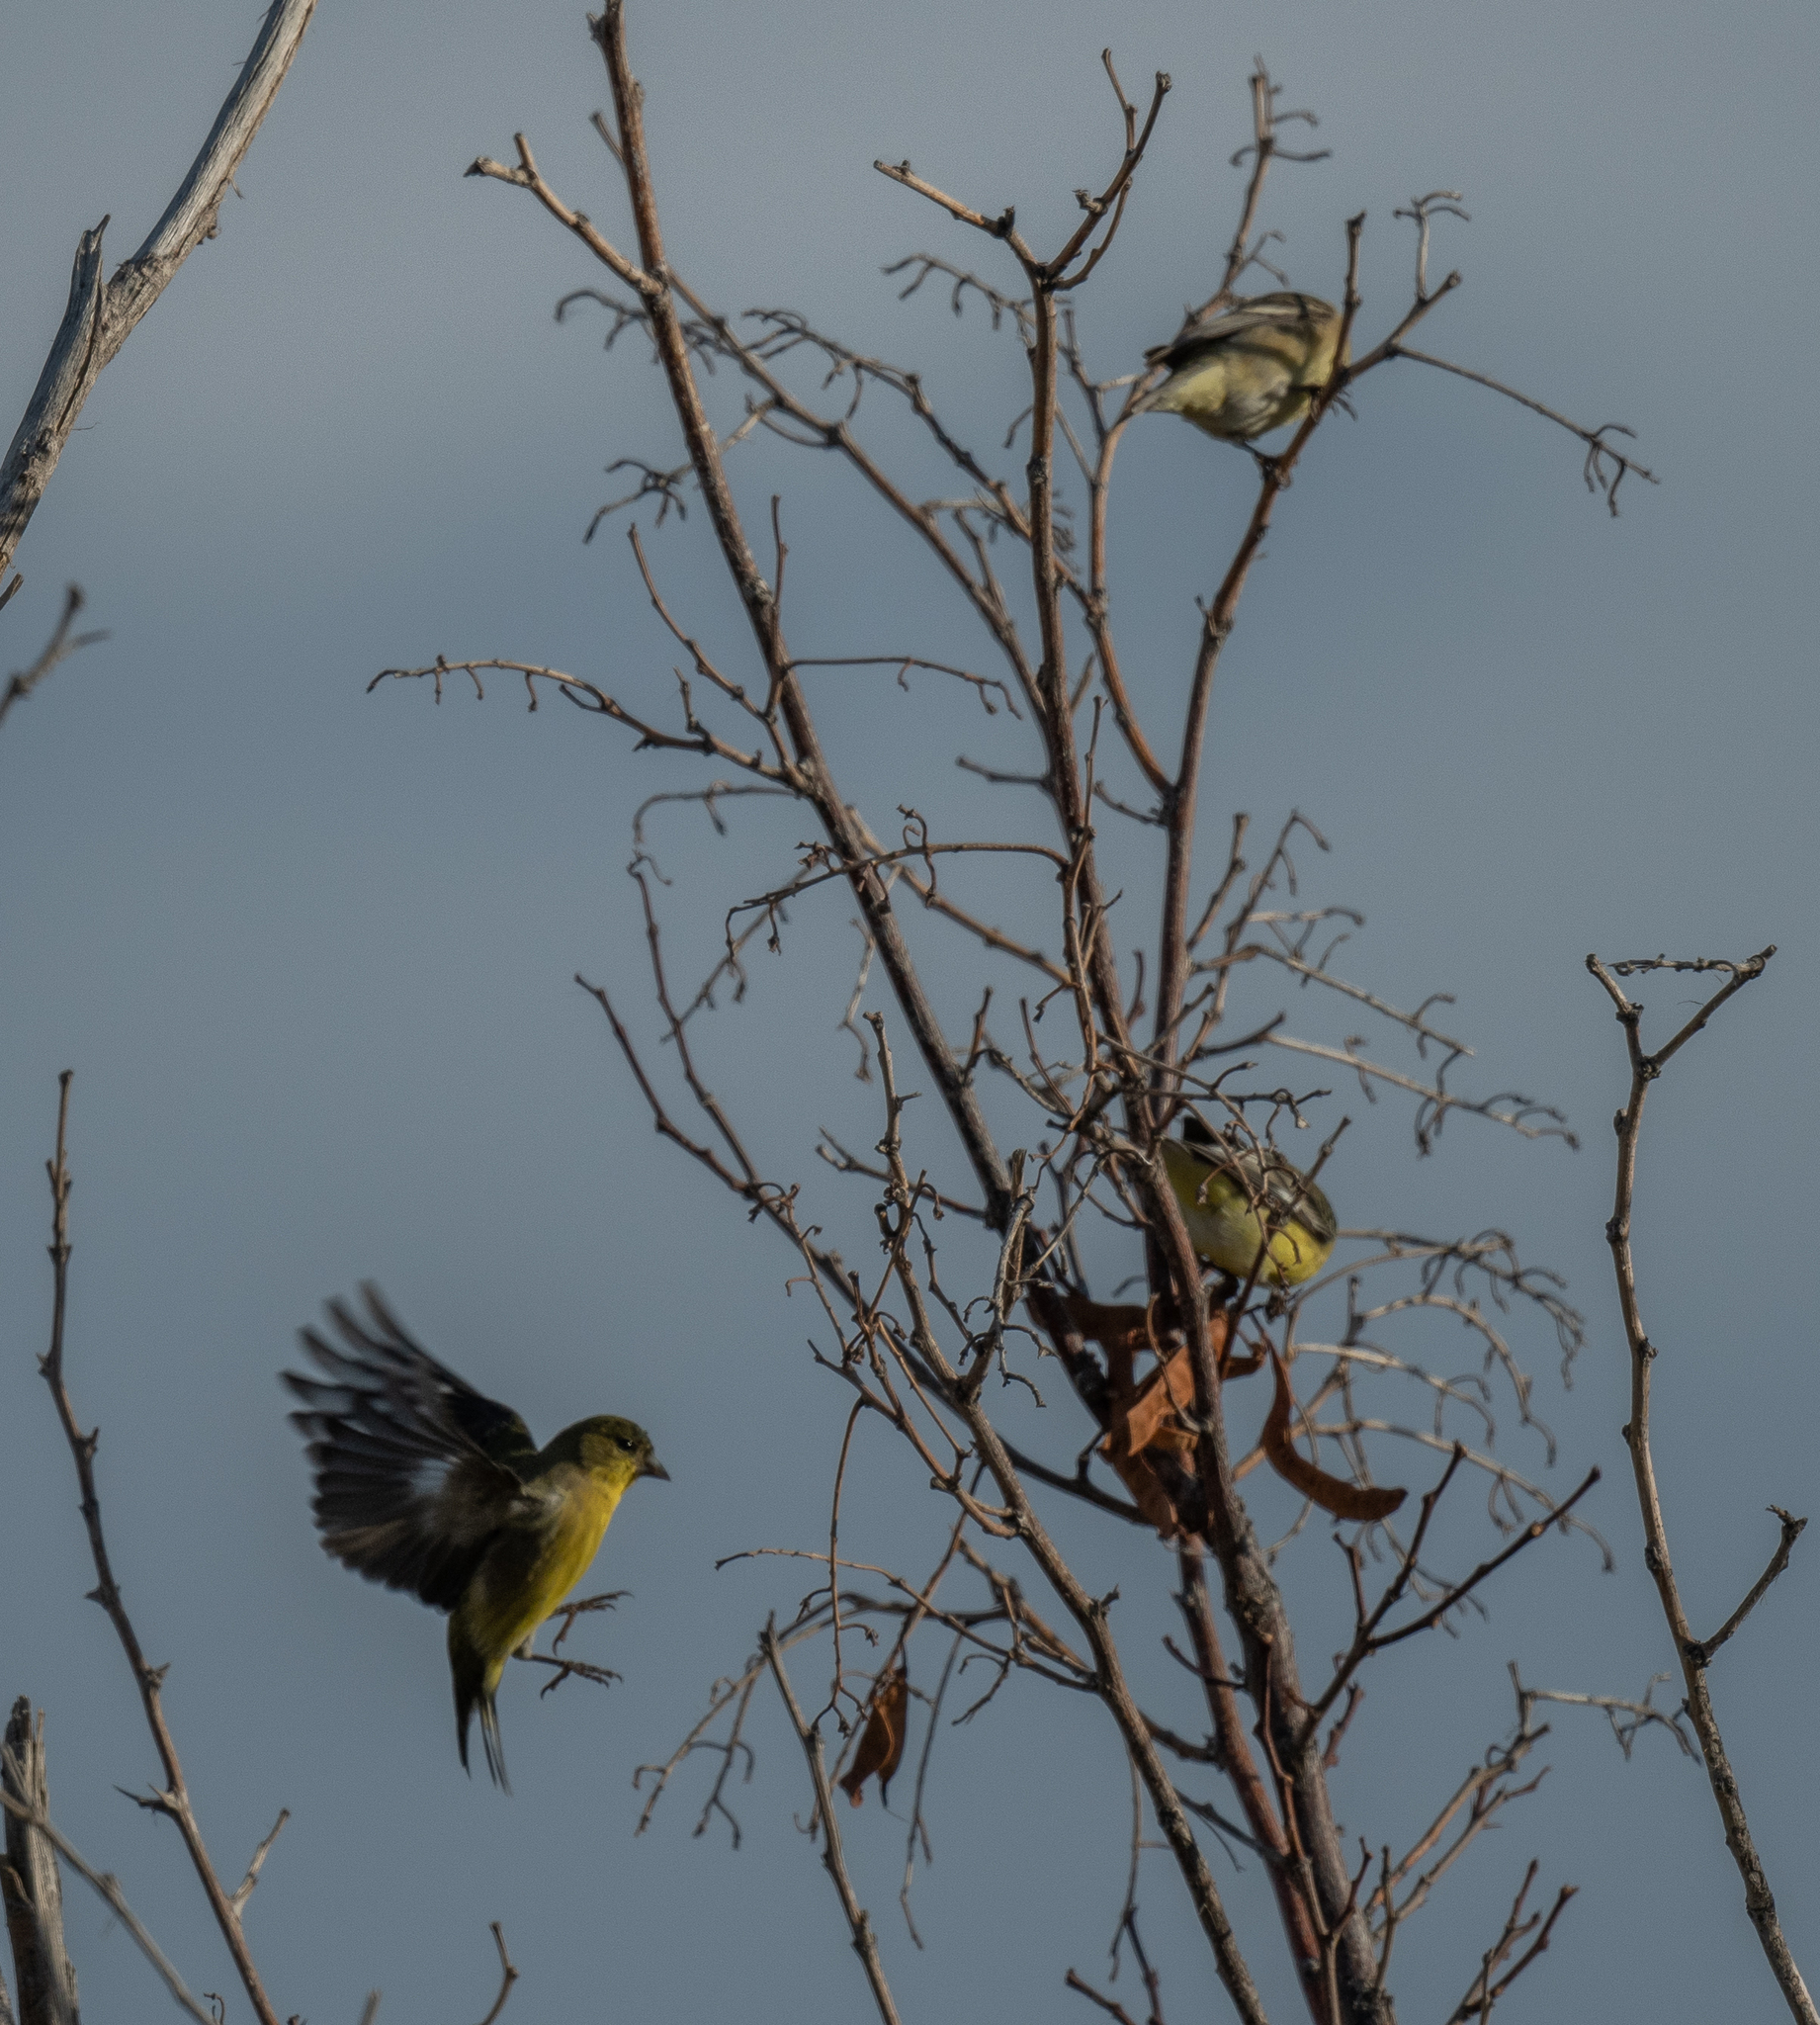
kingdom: Animalia
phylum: Chordata
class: Aves
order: Passeriformes
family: Fringillidae
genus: Spinus
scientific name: Spinus psaltria
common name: Lesser goldfinch
